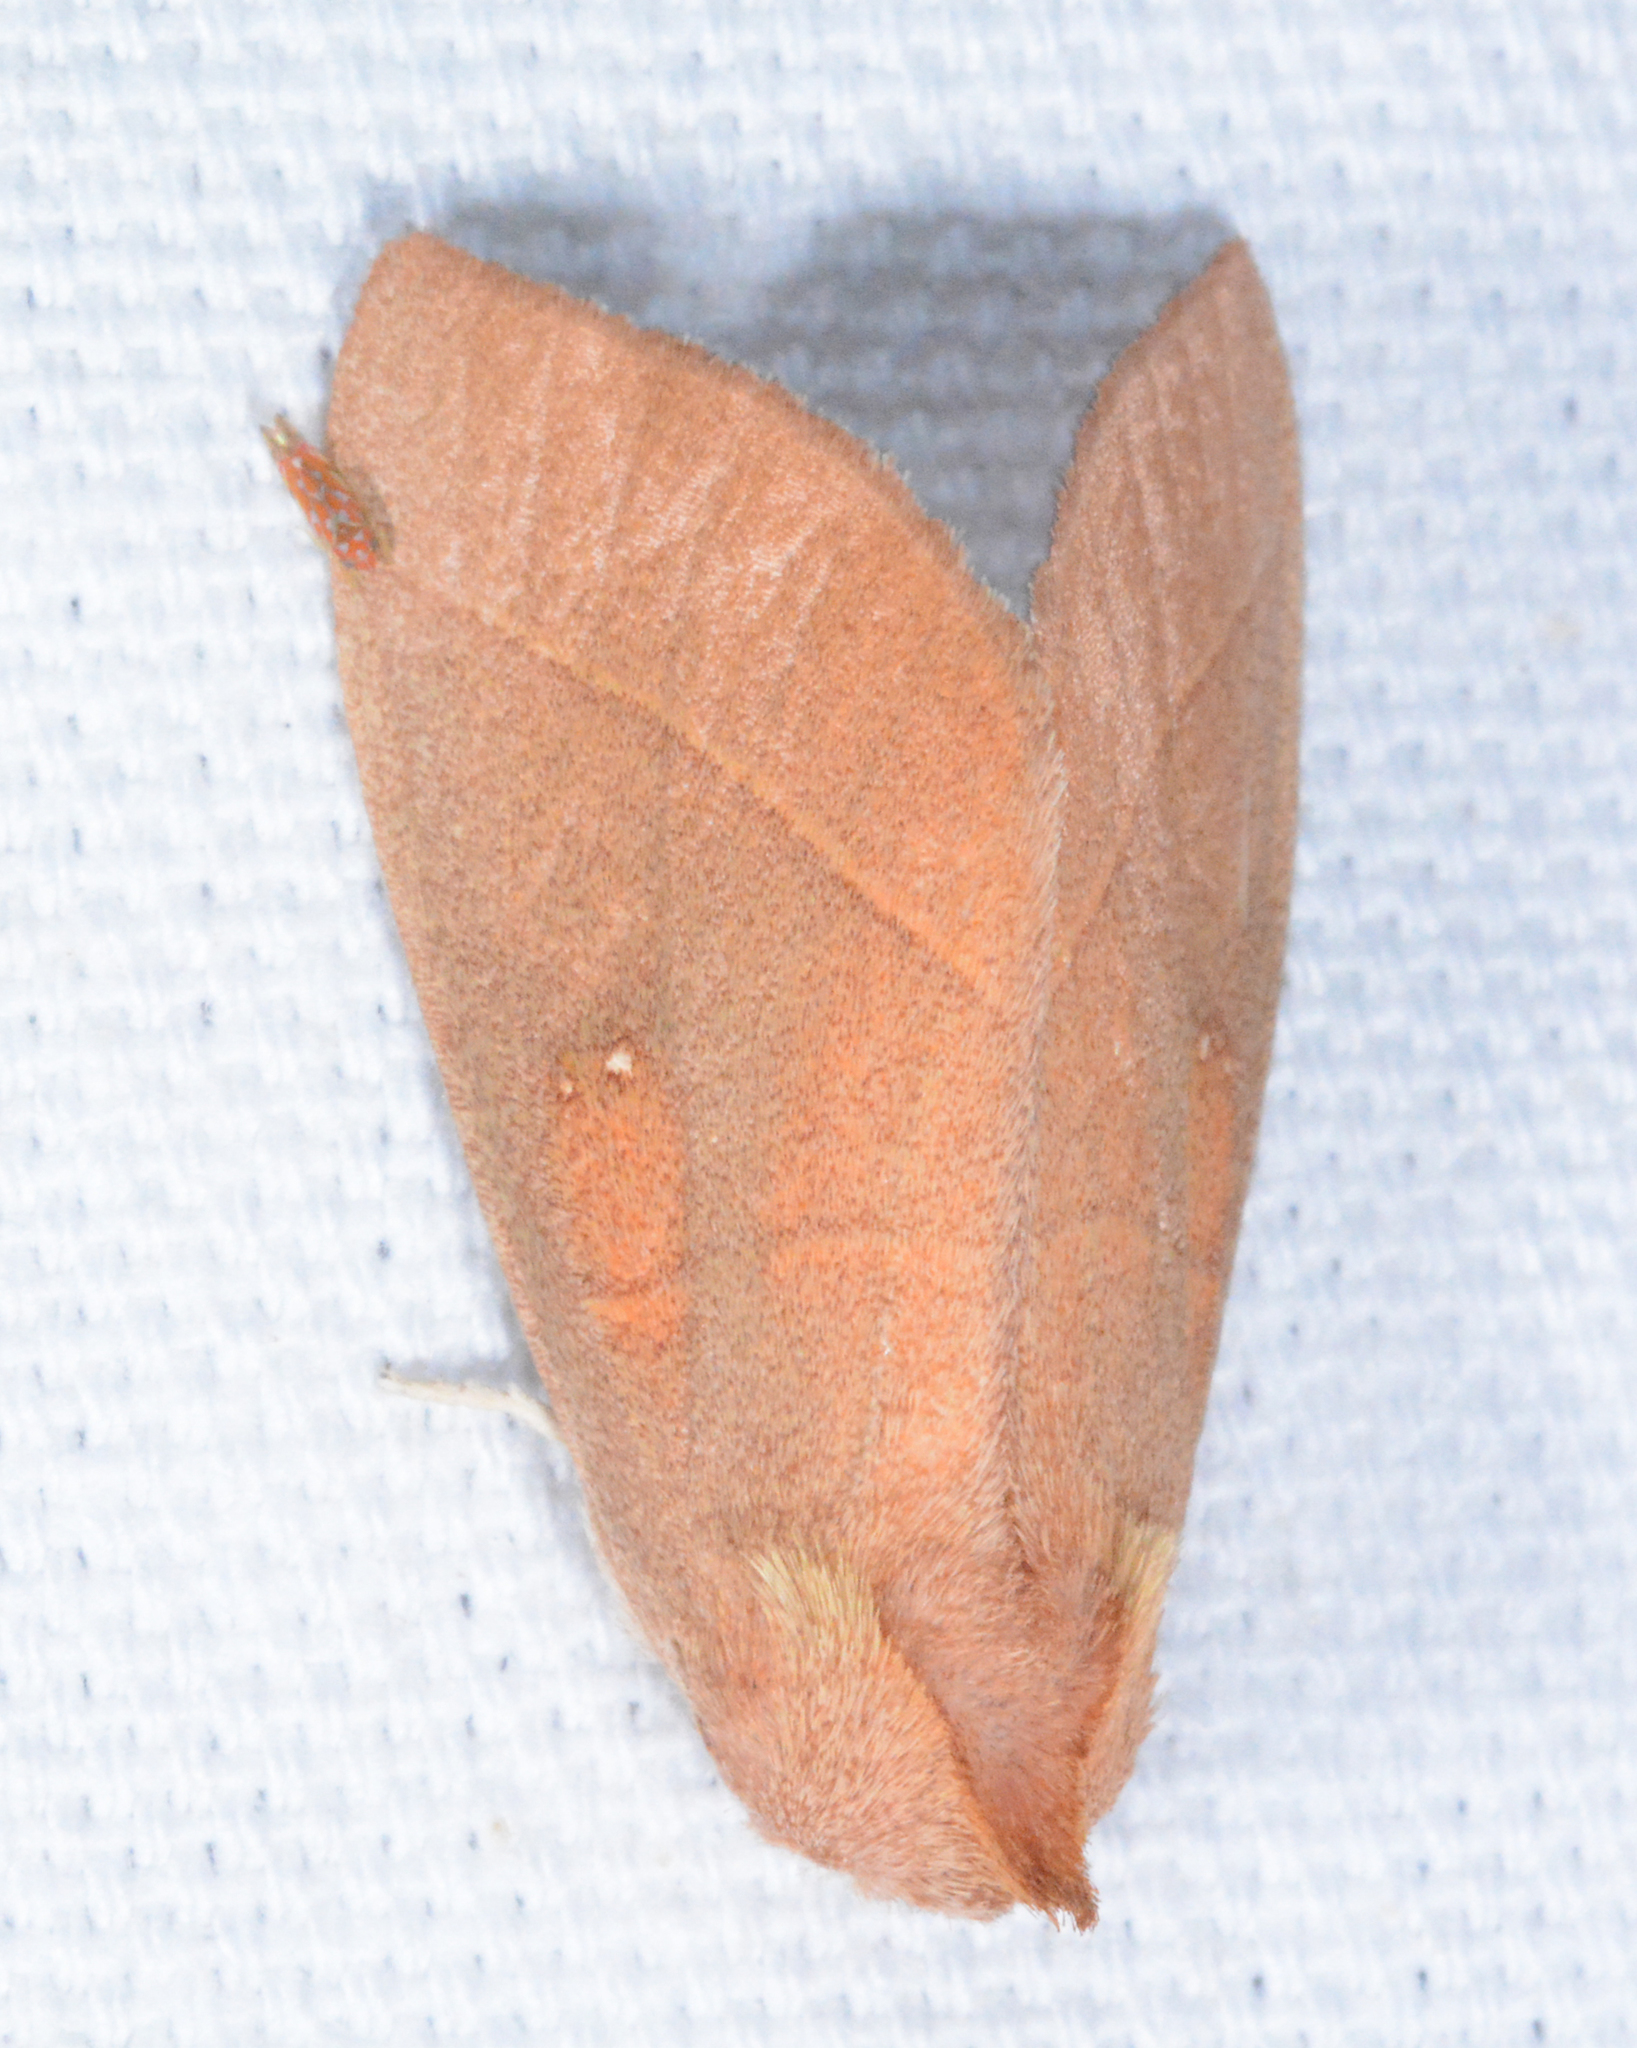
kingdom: Animalia
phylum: Arthropoda
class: Insecta
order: Lepidoptera
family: Notodontidae
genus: Nadata
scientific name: Nadata gibbosa
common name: White-dotted prominent
